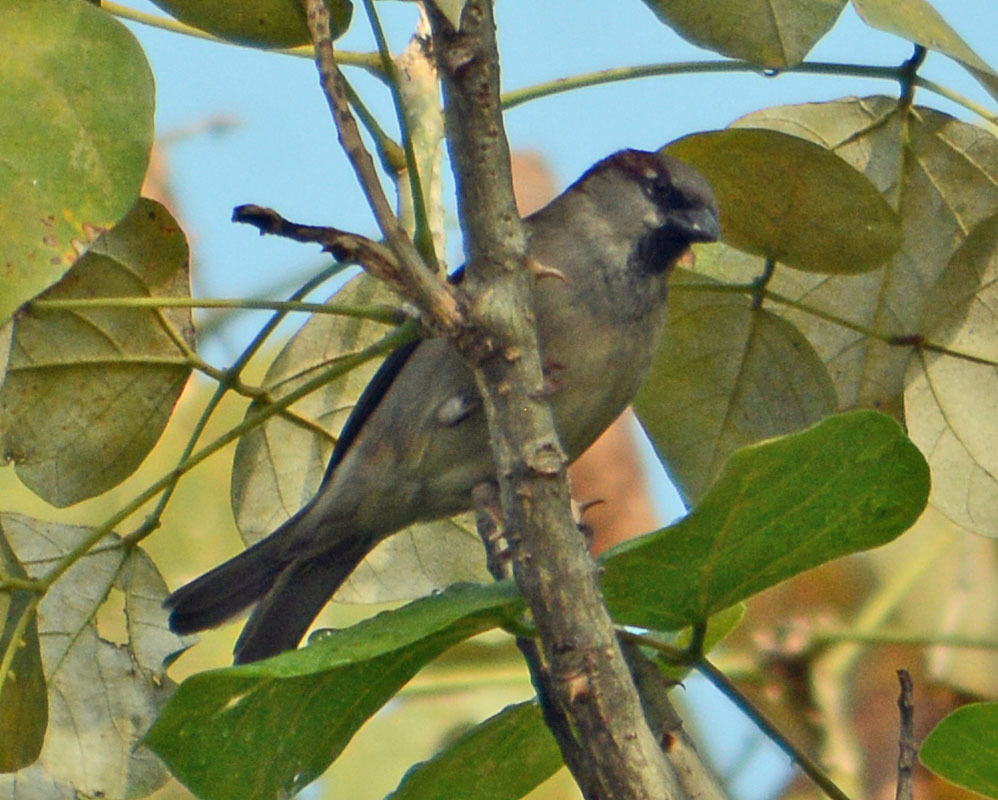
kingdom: Animalia
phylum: Chordata
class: Aves
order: Passeriformes
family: Passeridae
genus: Passer
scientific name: Passer domesticus
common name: House sparrow
